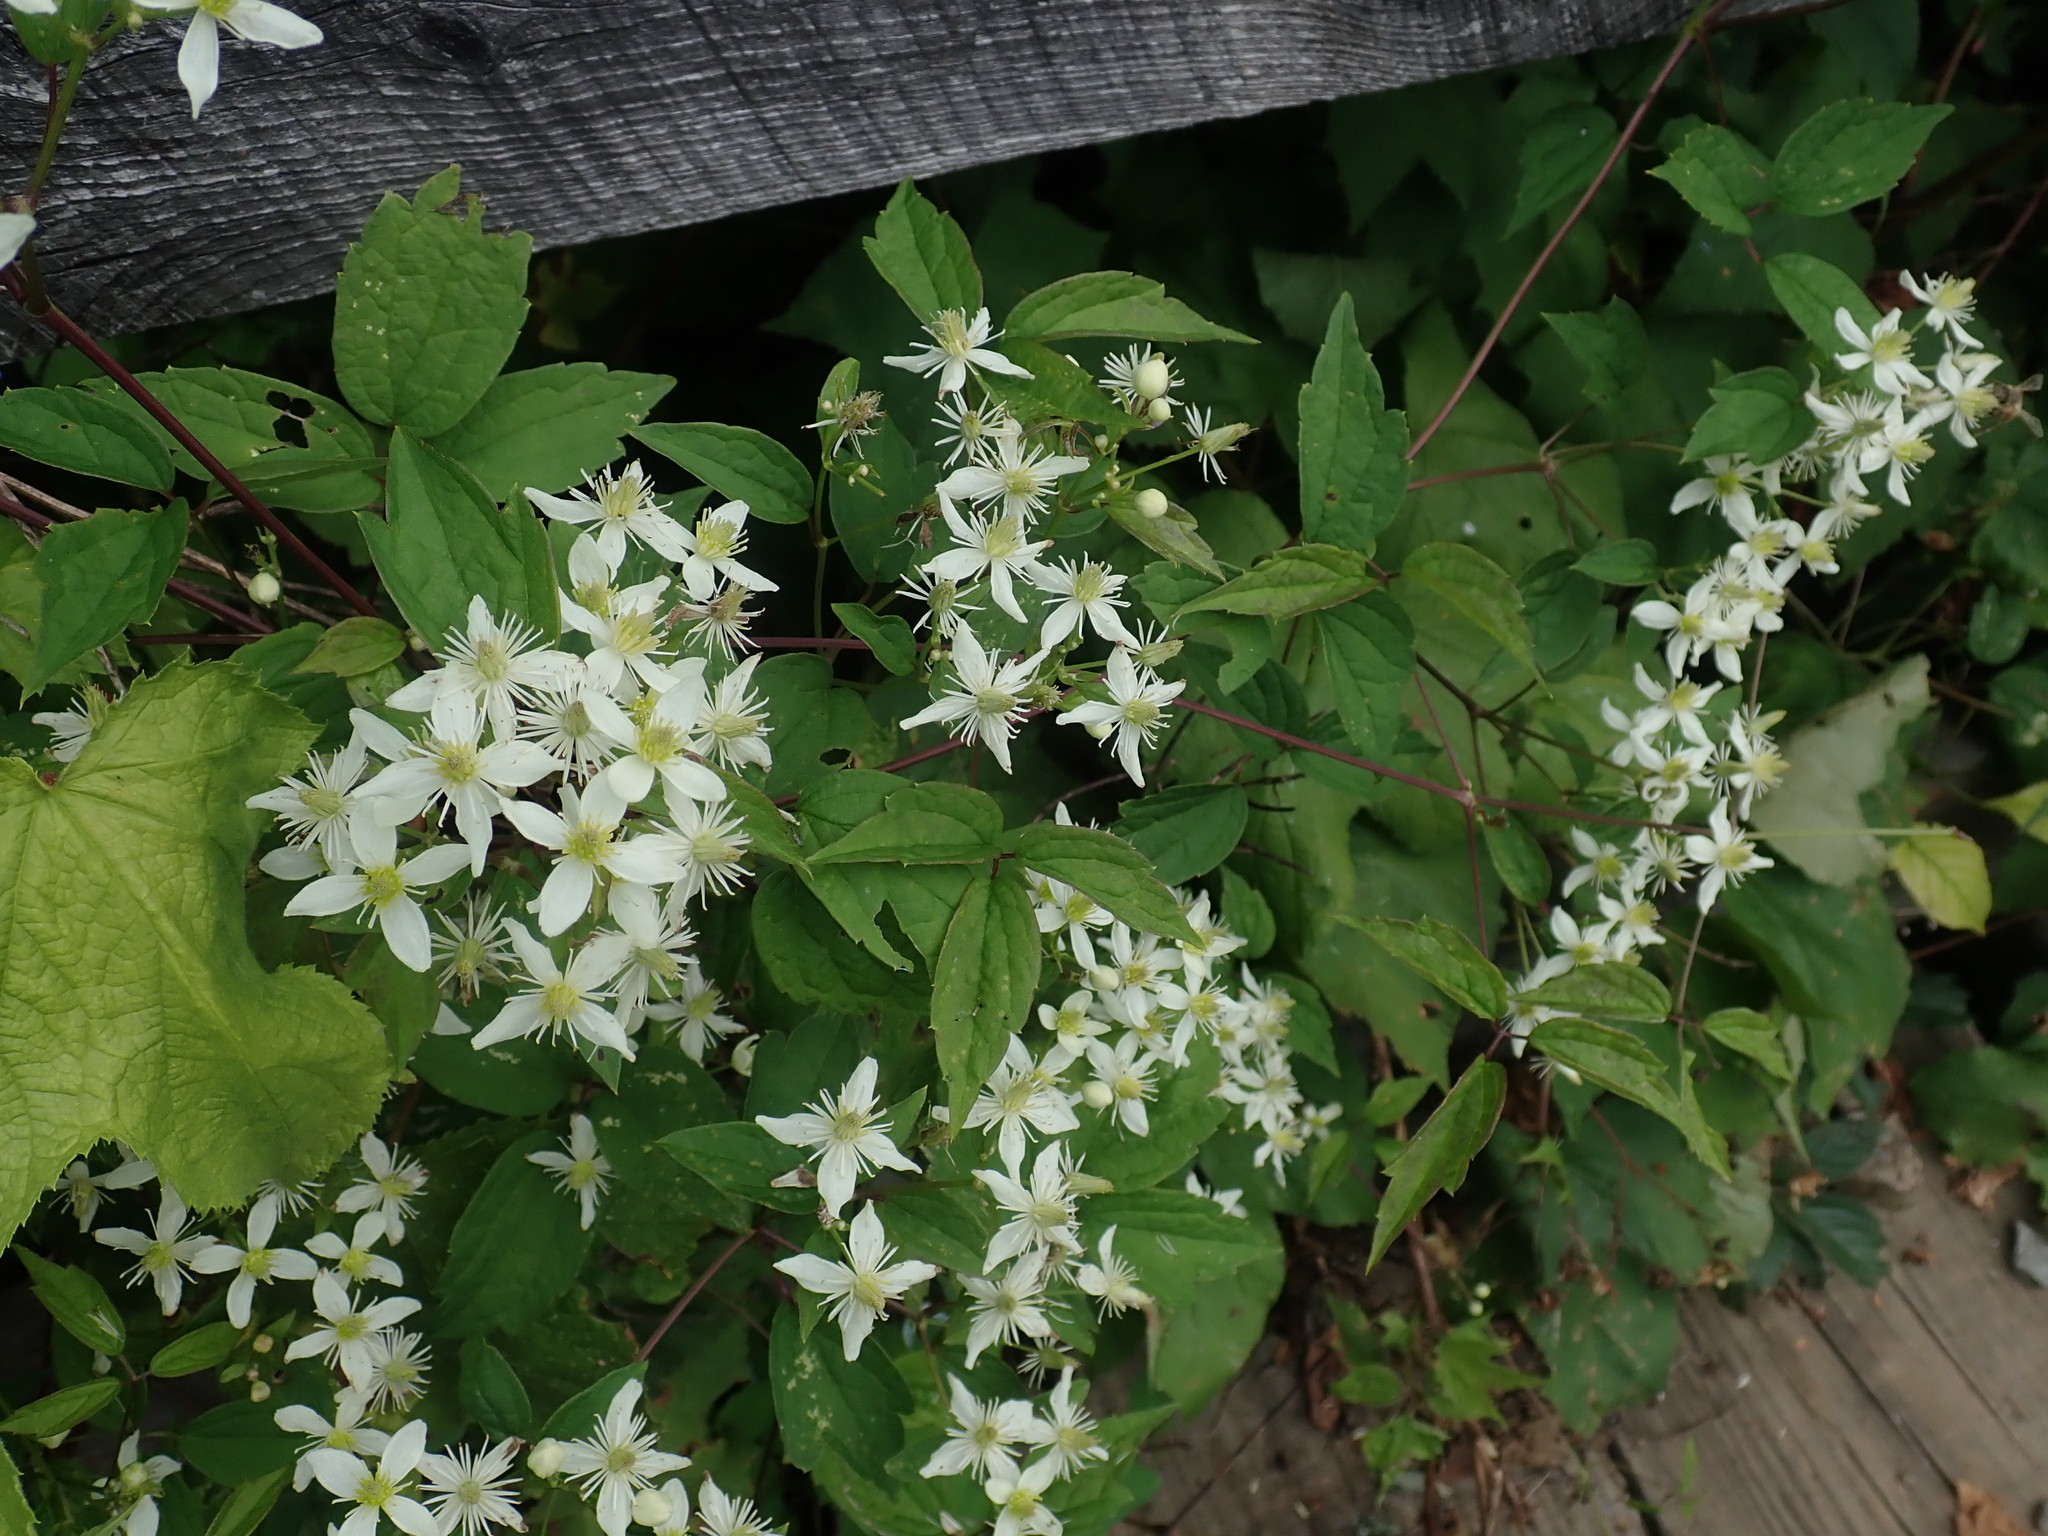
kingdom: Plantae
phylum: Tracheophyta
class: Magnoliopsida
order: Ranunculales
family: Ranunculaceae
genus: Clematis
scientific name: Clematis virginiana
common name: Virgin's-bower
